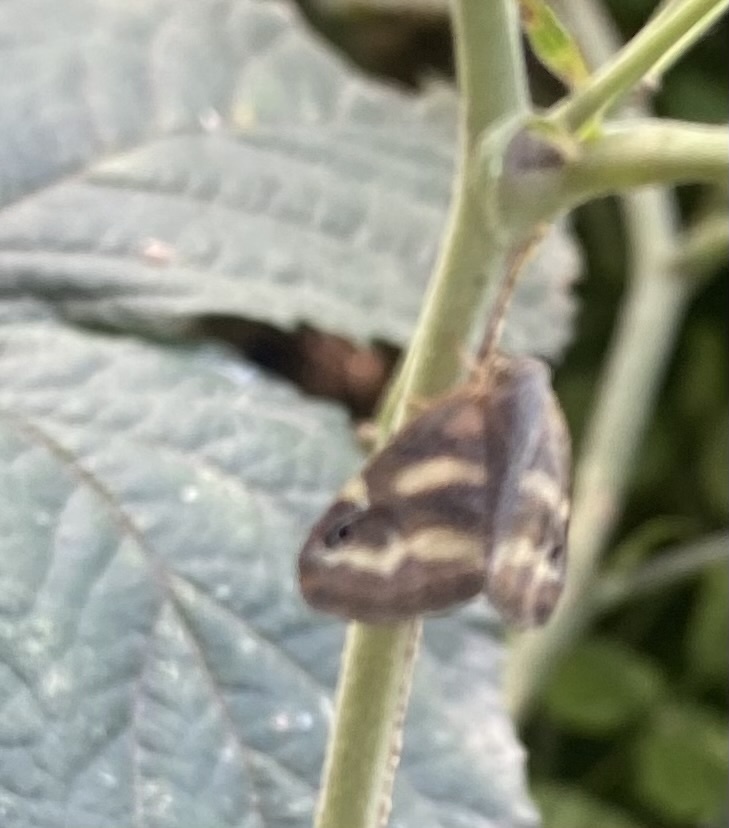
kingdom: Animalia
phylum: Arthropoda
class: Insecta
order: Hemiptera
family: Ricaniidae
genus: Orosanga
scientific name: Orosanga japonica
